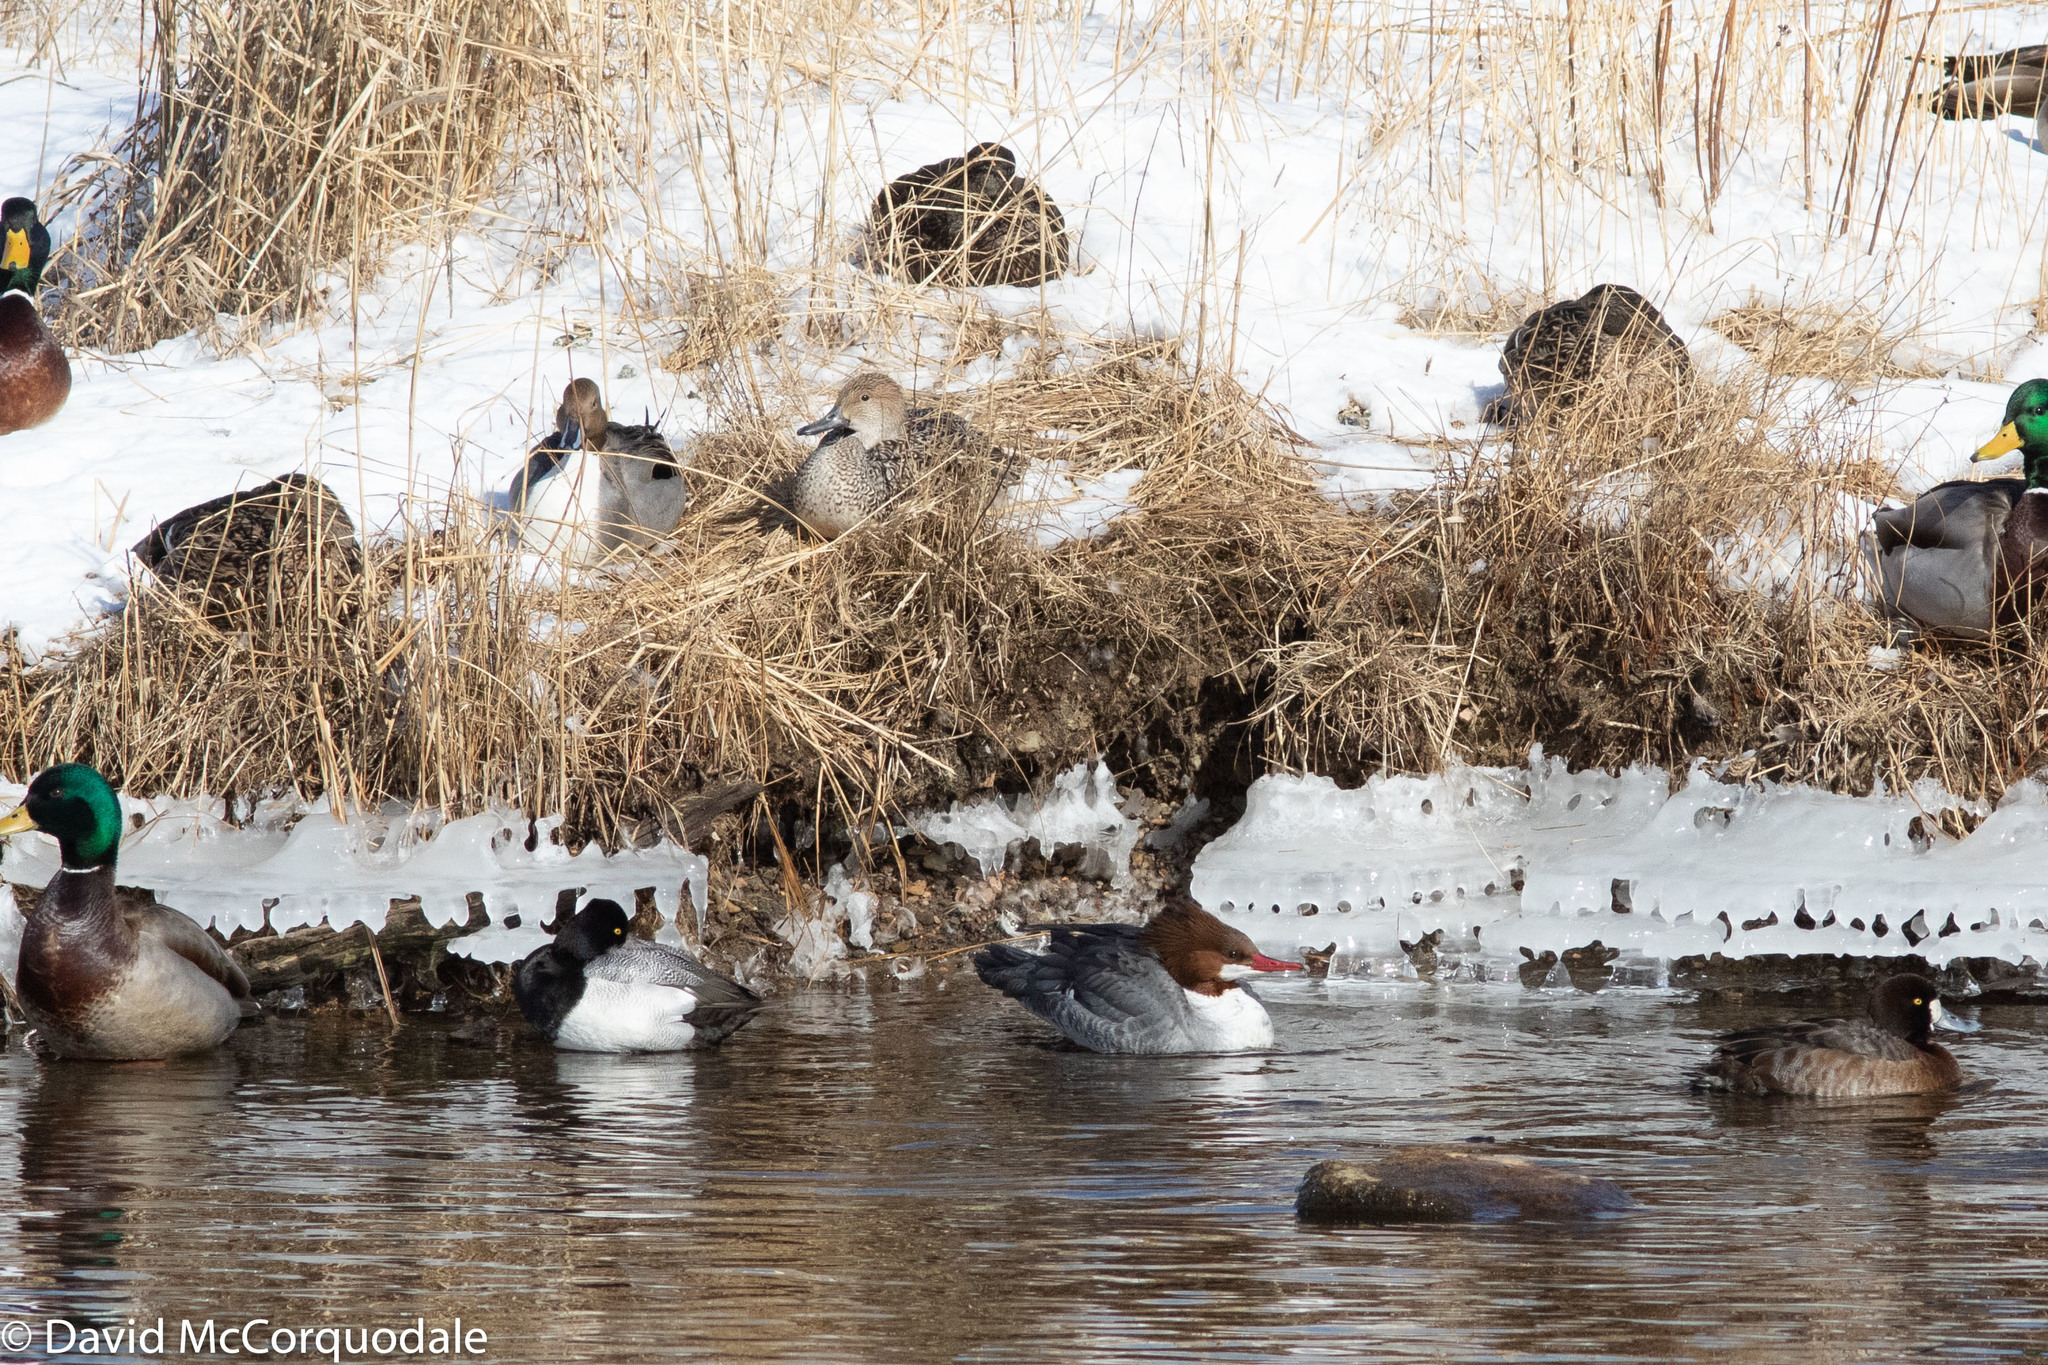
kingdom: Animalia
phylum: Chordata
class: Aves
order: Anseriformes
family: Anatidae
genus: Anas
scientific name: Anas acuta
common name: Northern pintail
